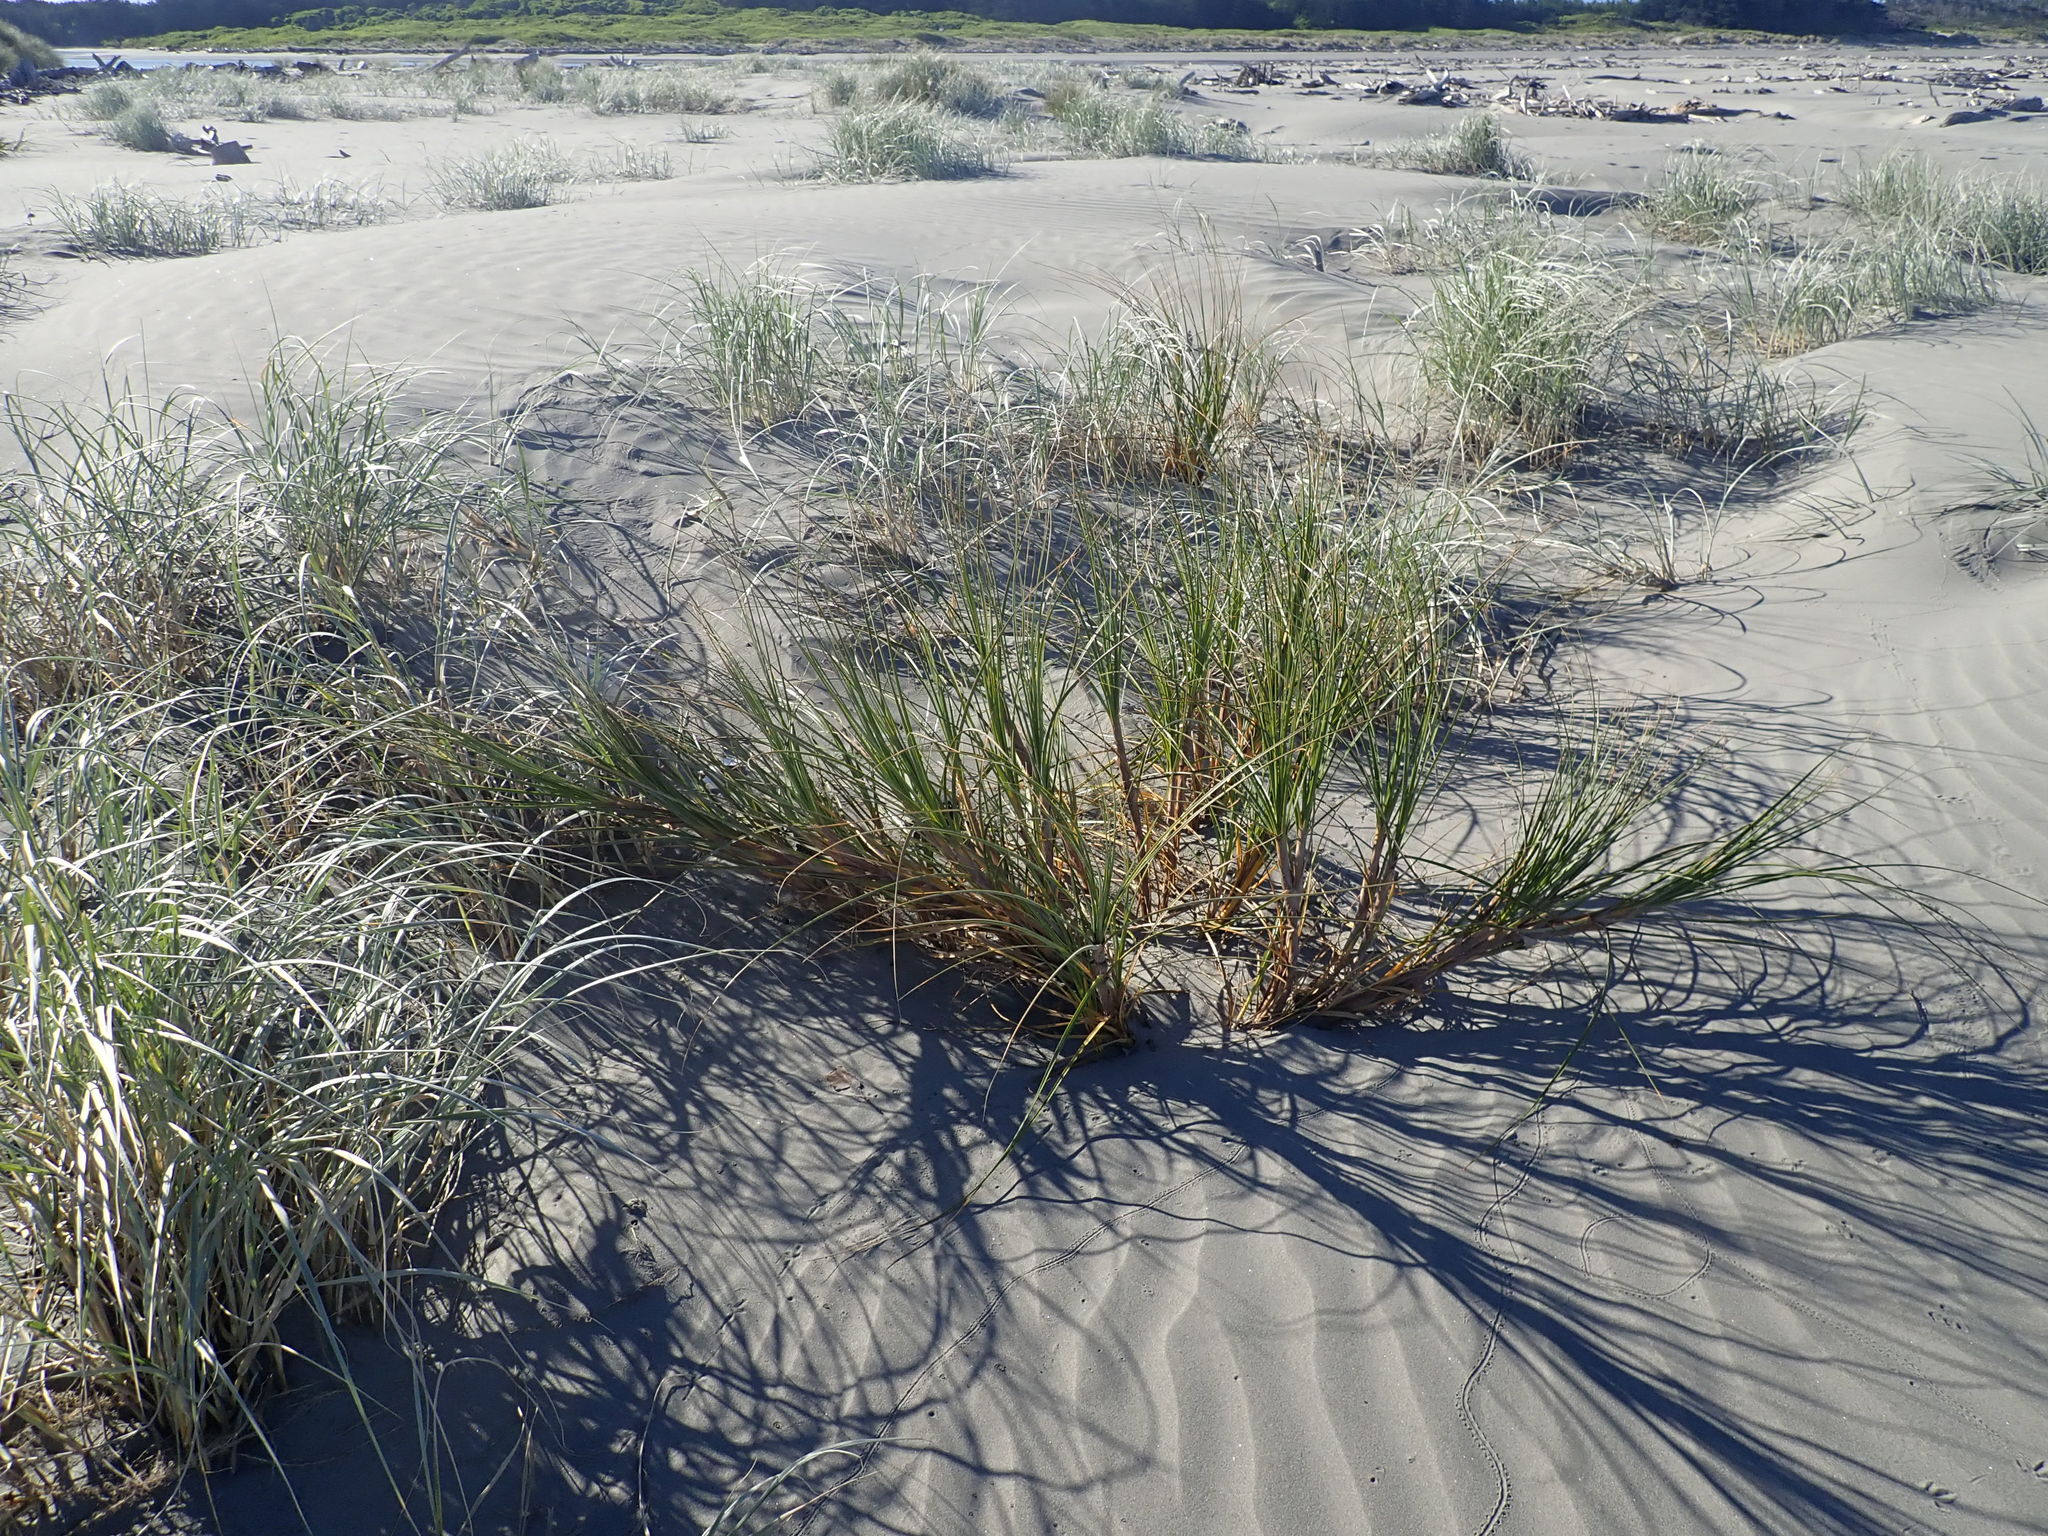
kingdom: Plantae
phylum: Tracheophyta
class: Liliopsida
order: Poales
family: Cyperaceae
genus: Ficinia
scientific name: Ficinia spiralis
